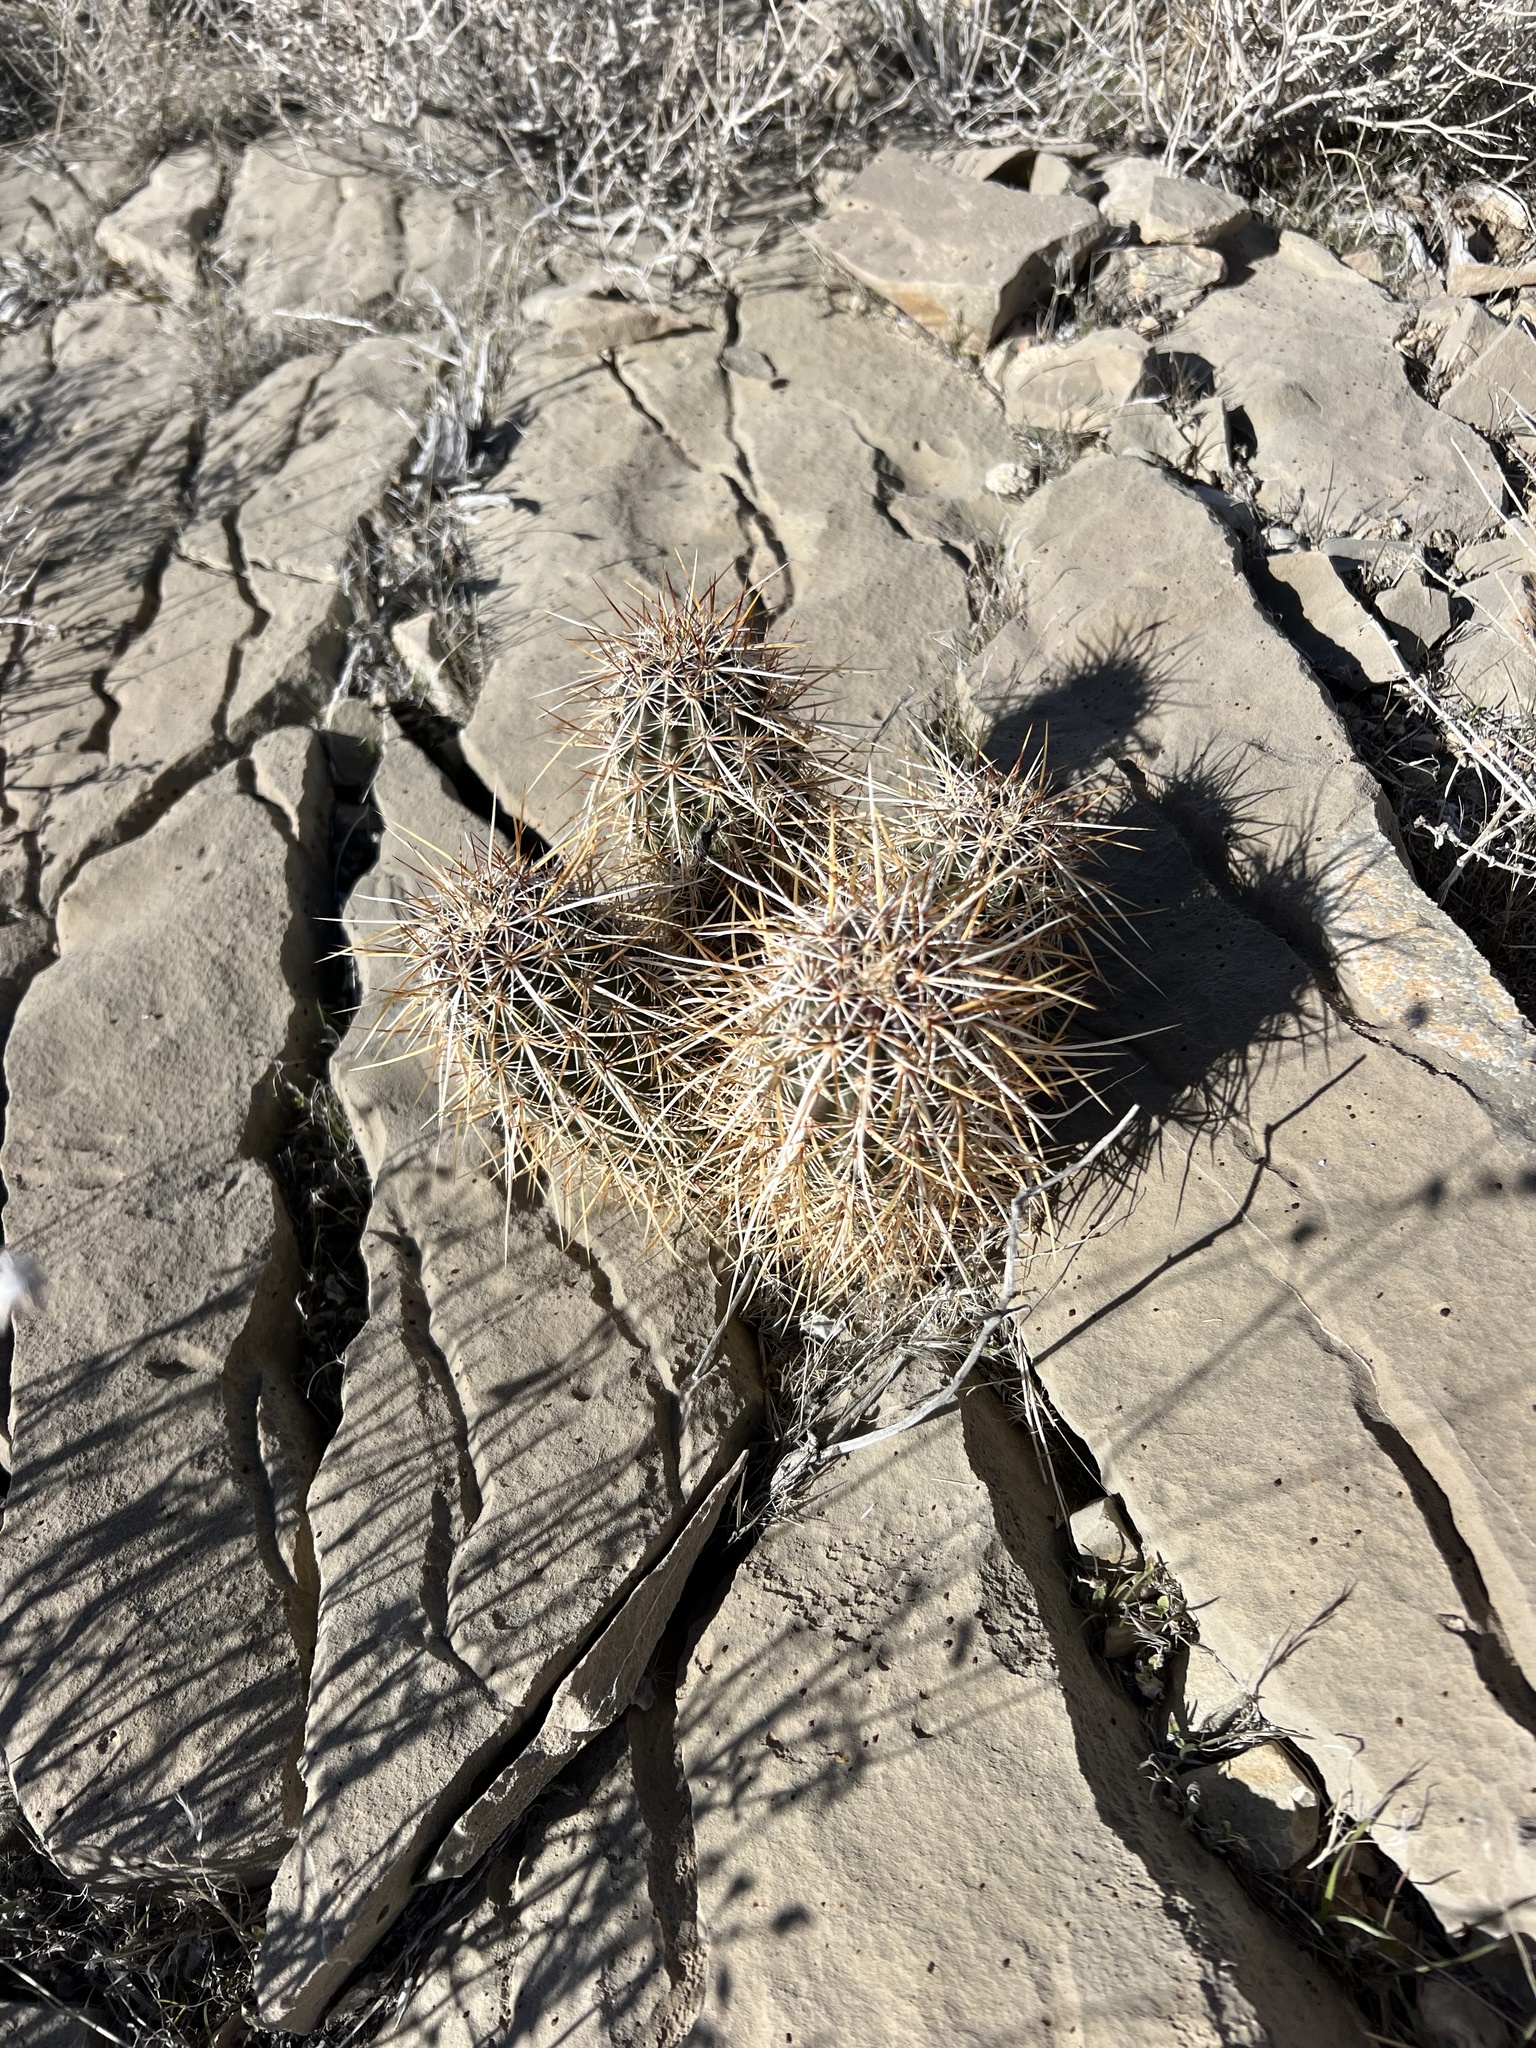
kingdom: Plantae
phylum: Tracheophyta
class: Magnoliopsida
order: Caryophyllales
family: Cactaceae
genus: Echinocereus
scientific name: Echinocereus engelmannii
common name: Engelmann's hedgehog cactus
